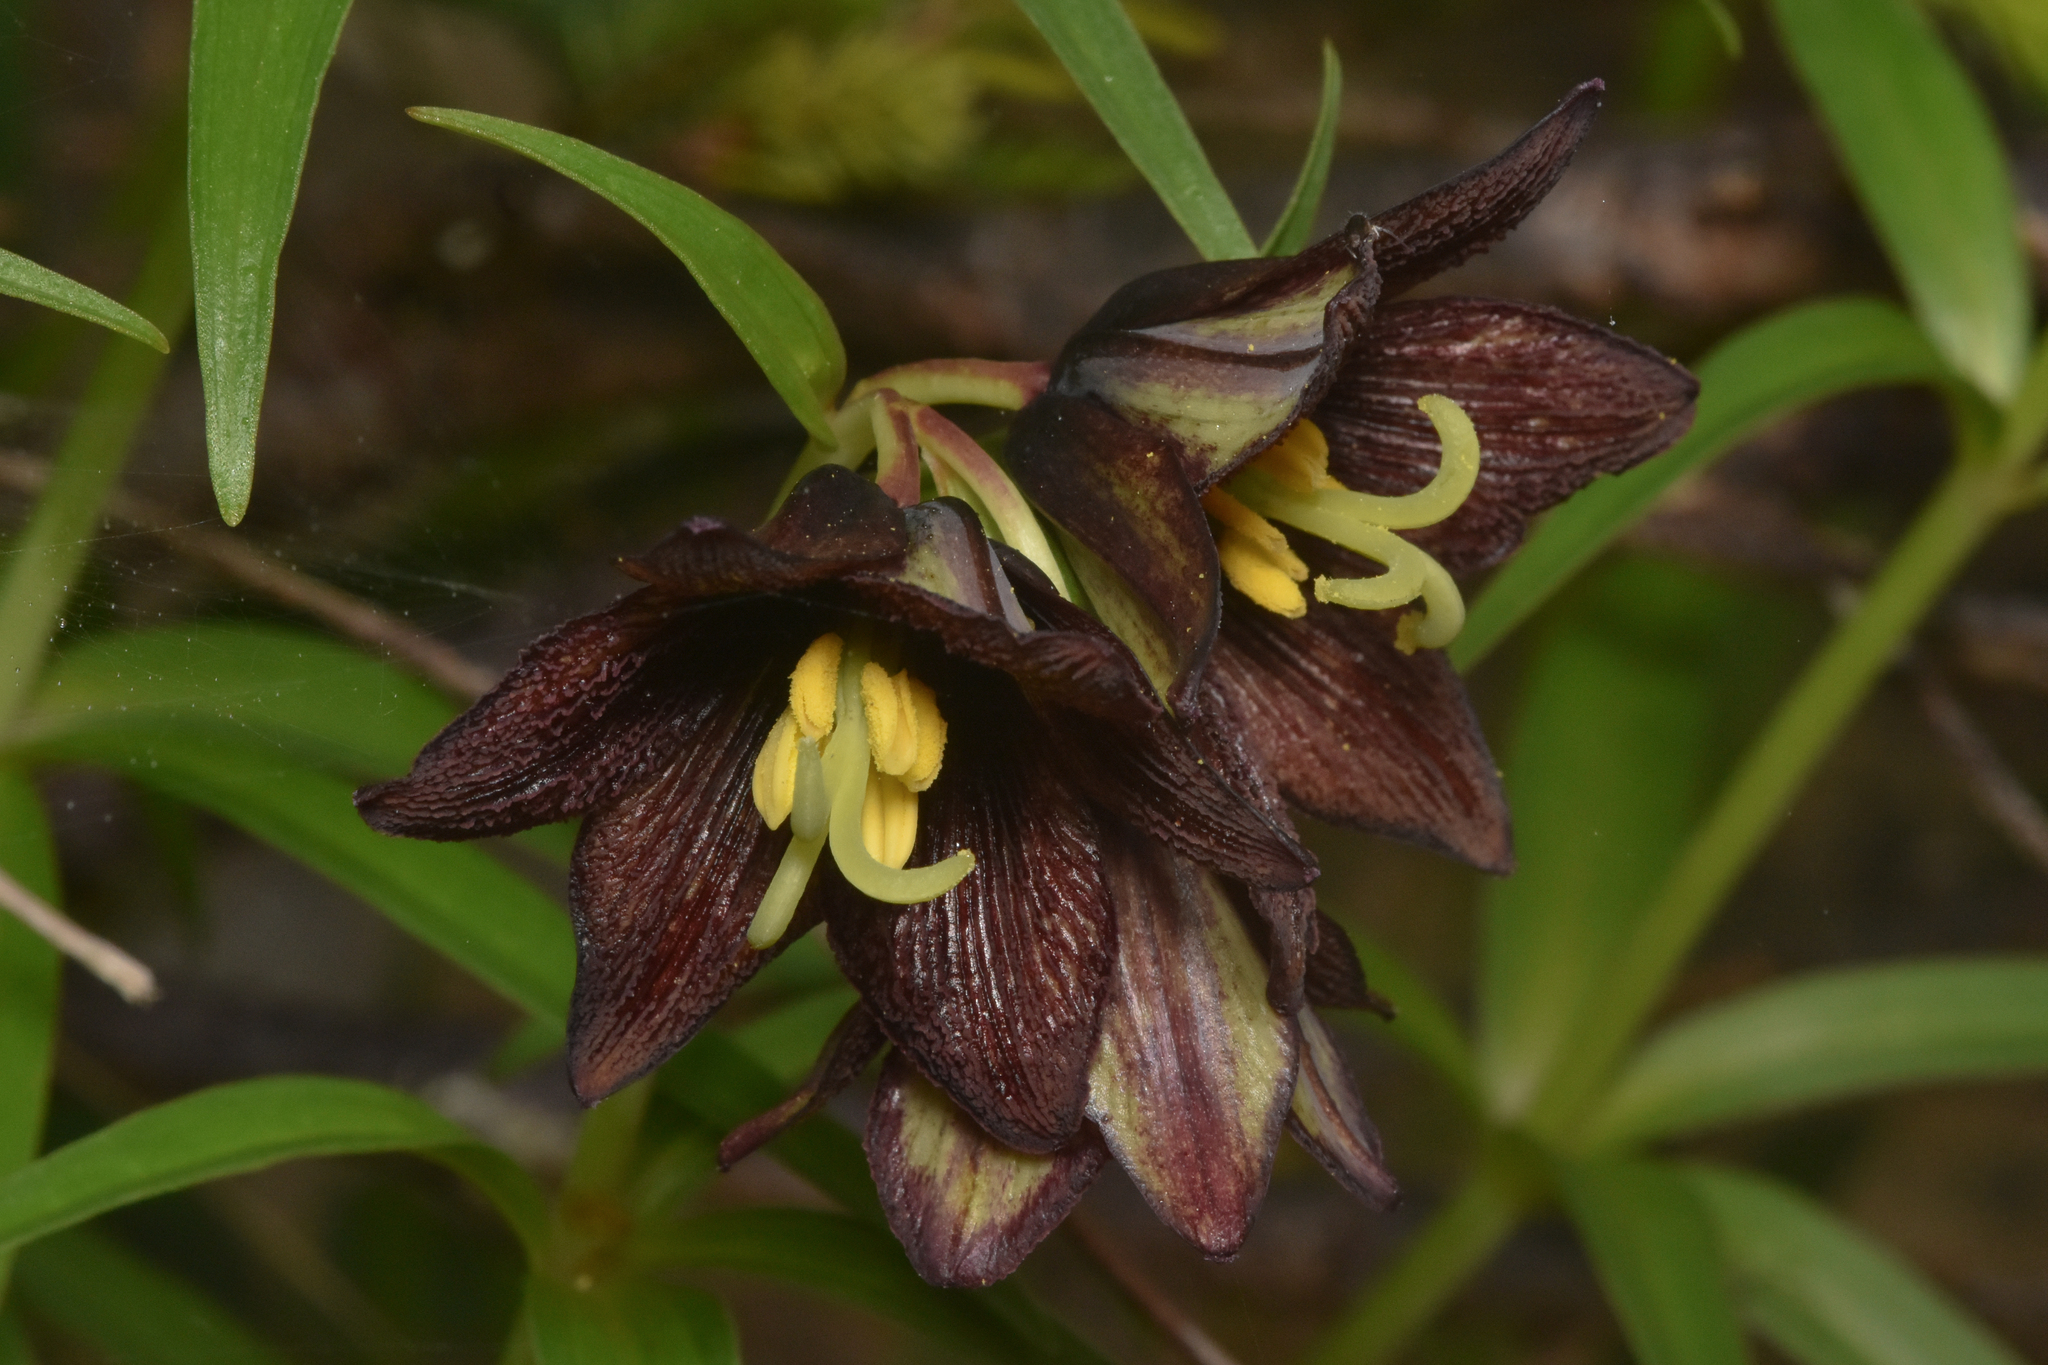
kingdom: Plantae
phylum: Tracheophyta
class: Liliopsida
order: Liliales
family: Liliaceae
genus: Fritillaria
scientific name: Fritillaria camschatcensis
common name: Kamchatka fritillary
